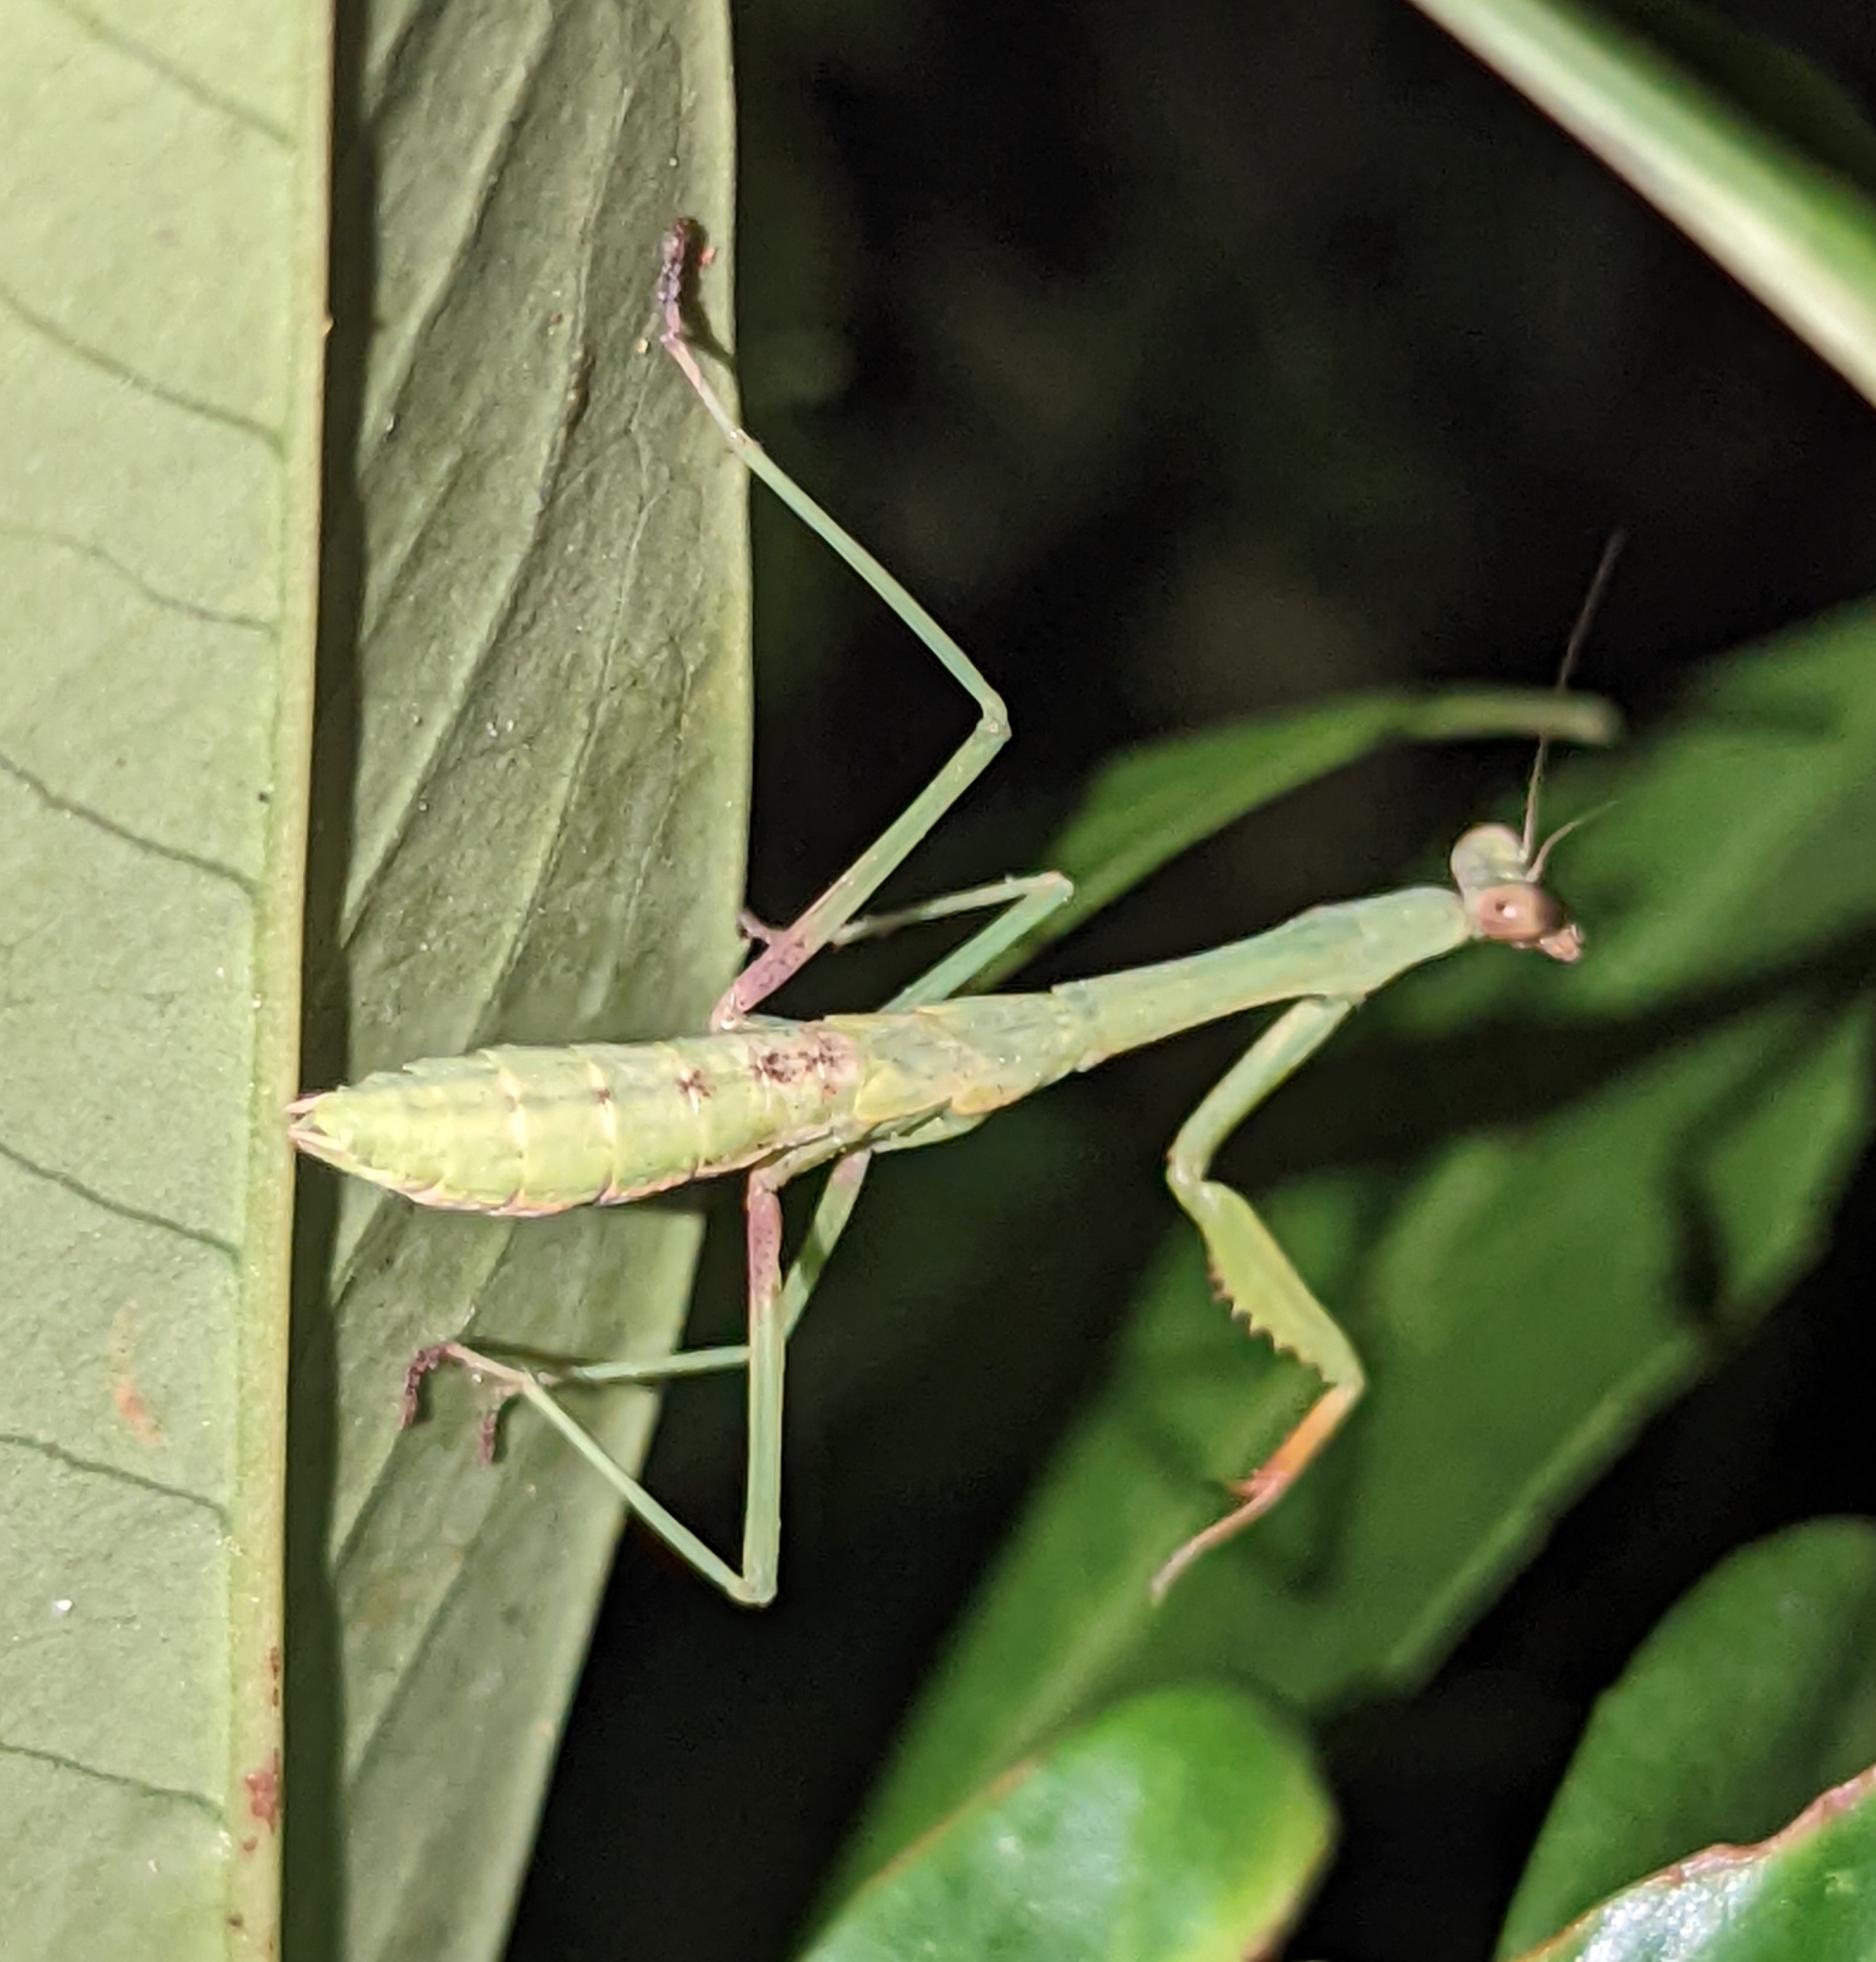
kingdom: Animalia
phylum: Arthropoda
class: Insecta
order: Mantodea
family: Mantidae
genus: Stagmomantis
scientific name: Stagmomantis carolina
